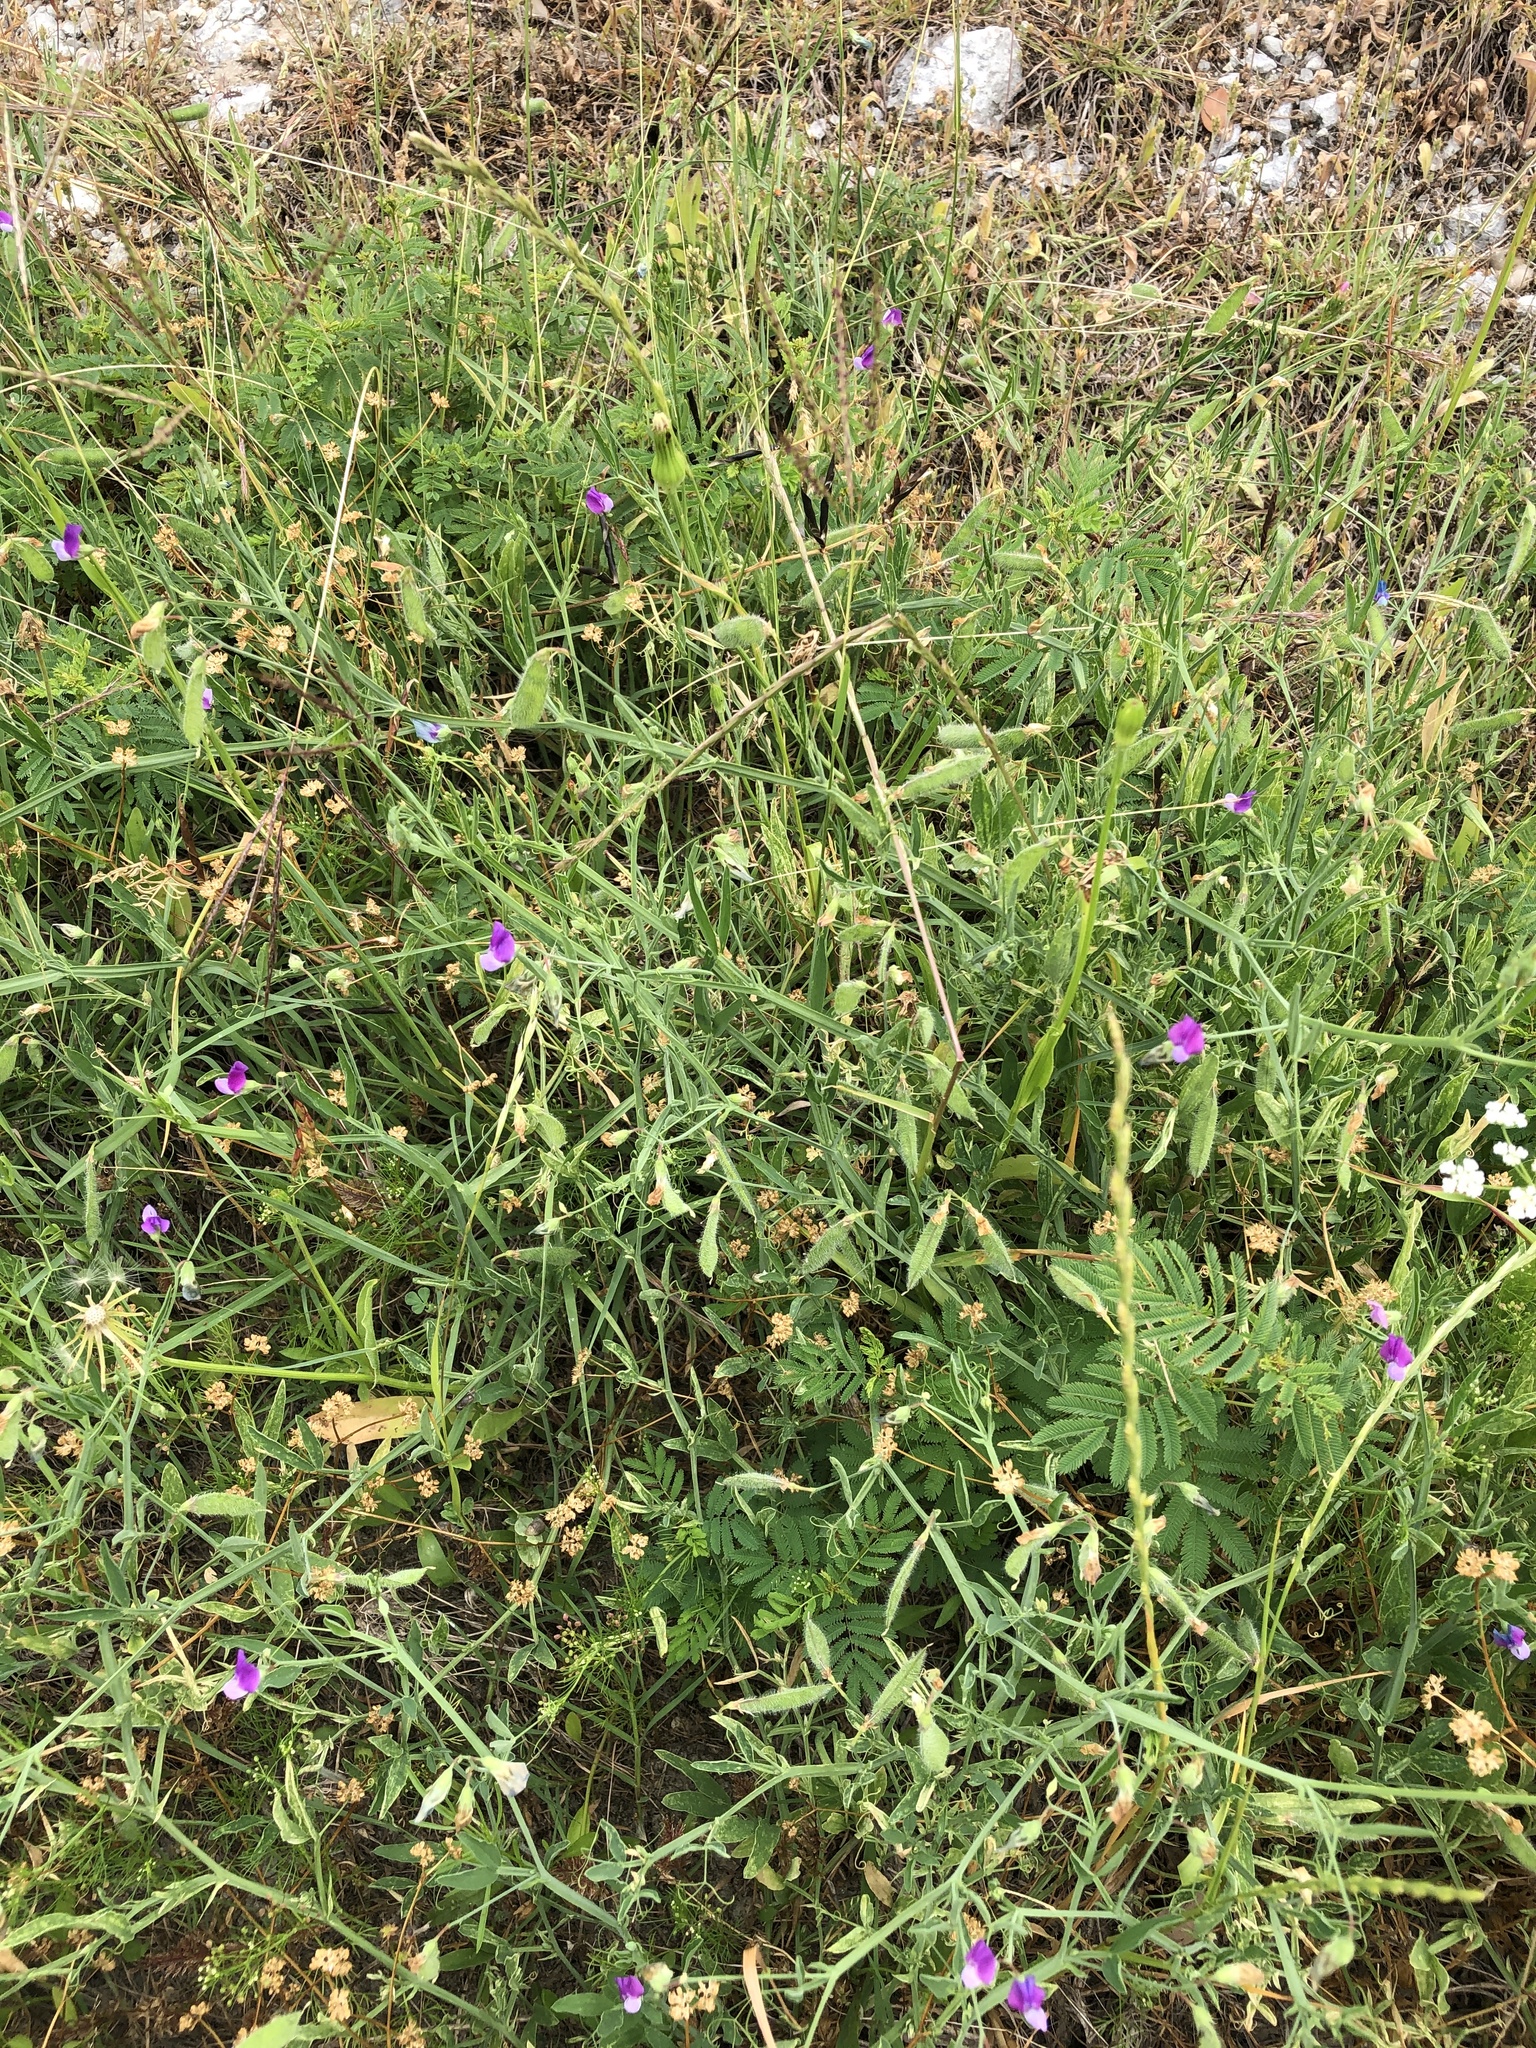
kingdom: Plantae
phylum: Tracheophyta
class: Magnoliopsida
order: Fabales
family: Fabaceae
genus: Lathyrus
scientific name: Lathyrus hirsutus
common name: Hairy vetchling
